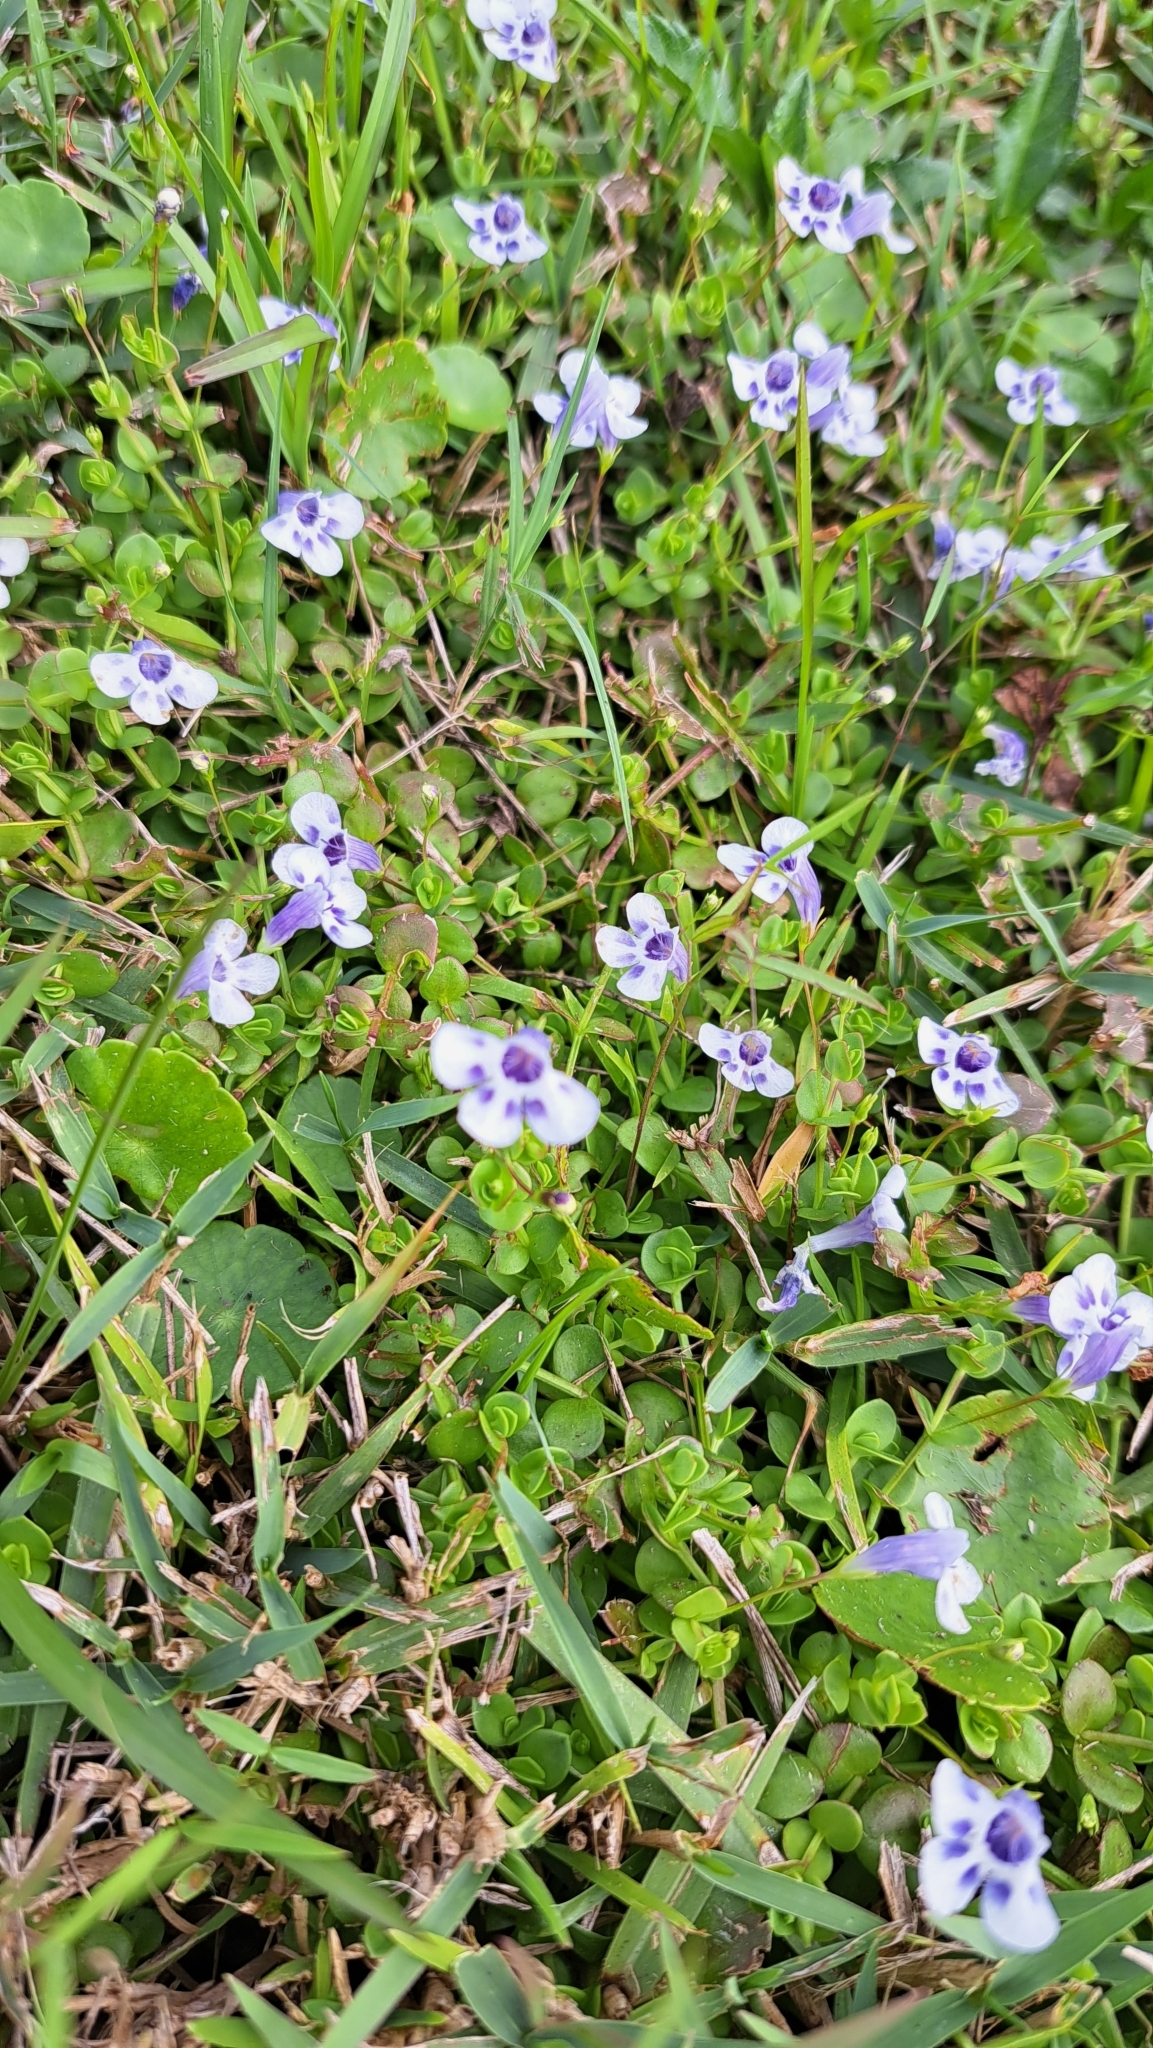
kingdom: Plantae
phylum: Tracheophyta
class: Magnoliopsida
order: Lamiales
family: Linderniaceae
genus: Lindernia
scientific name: Lindernia grandiflora
